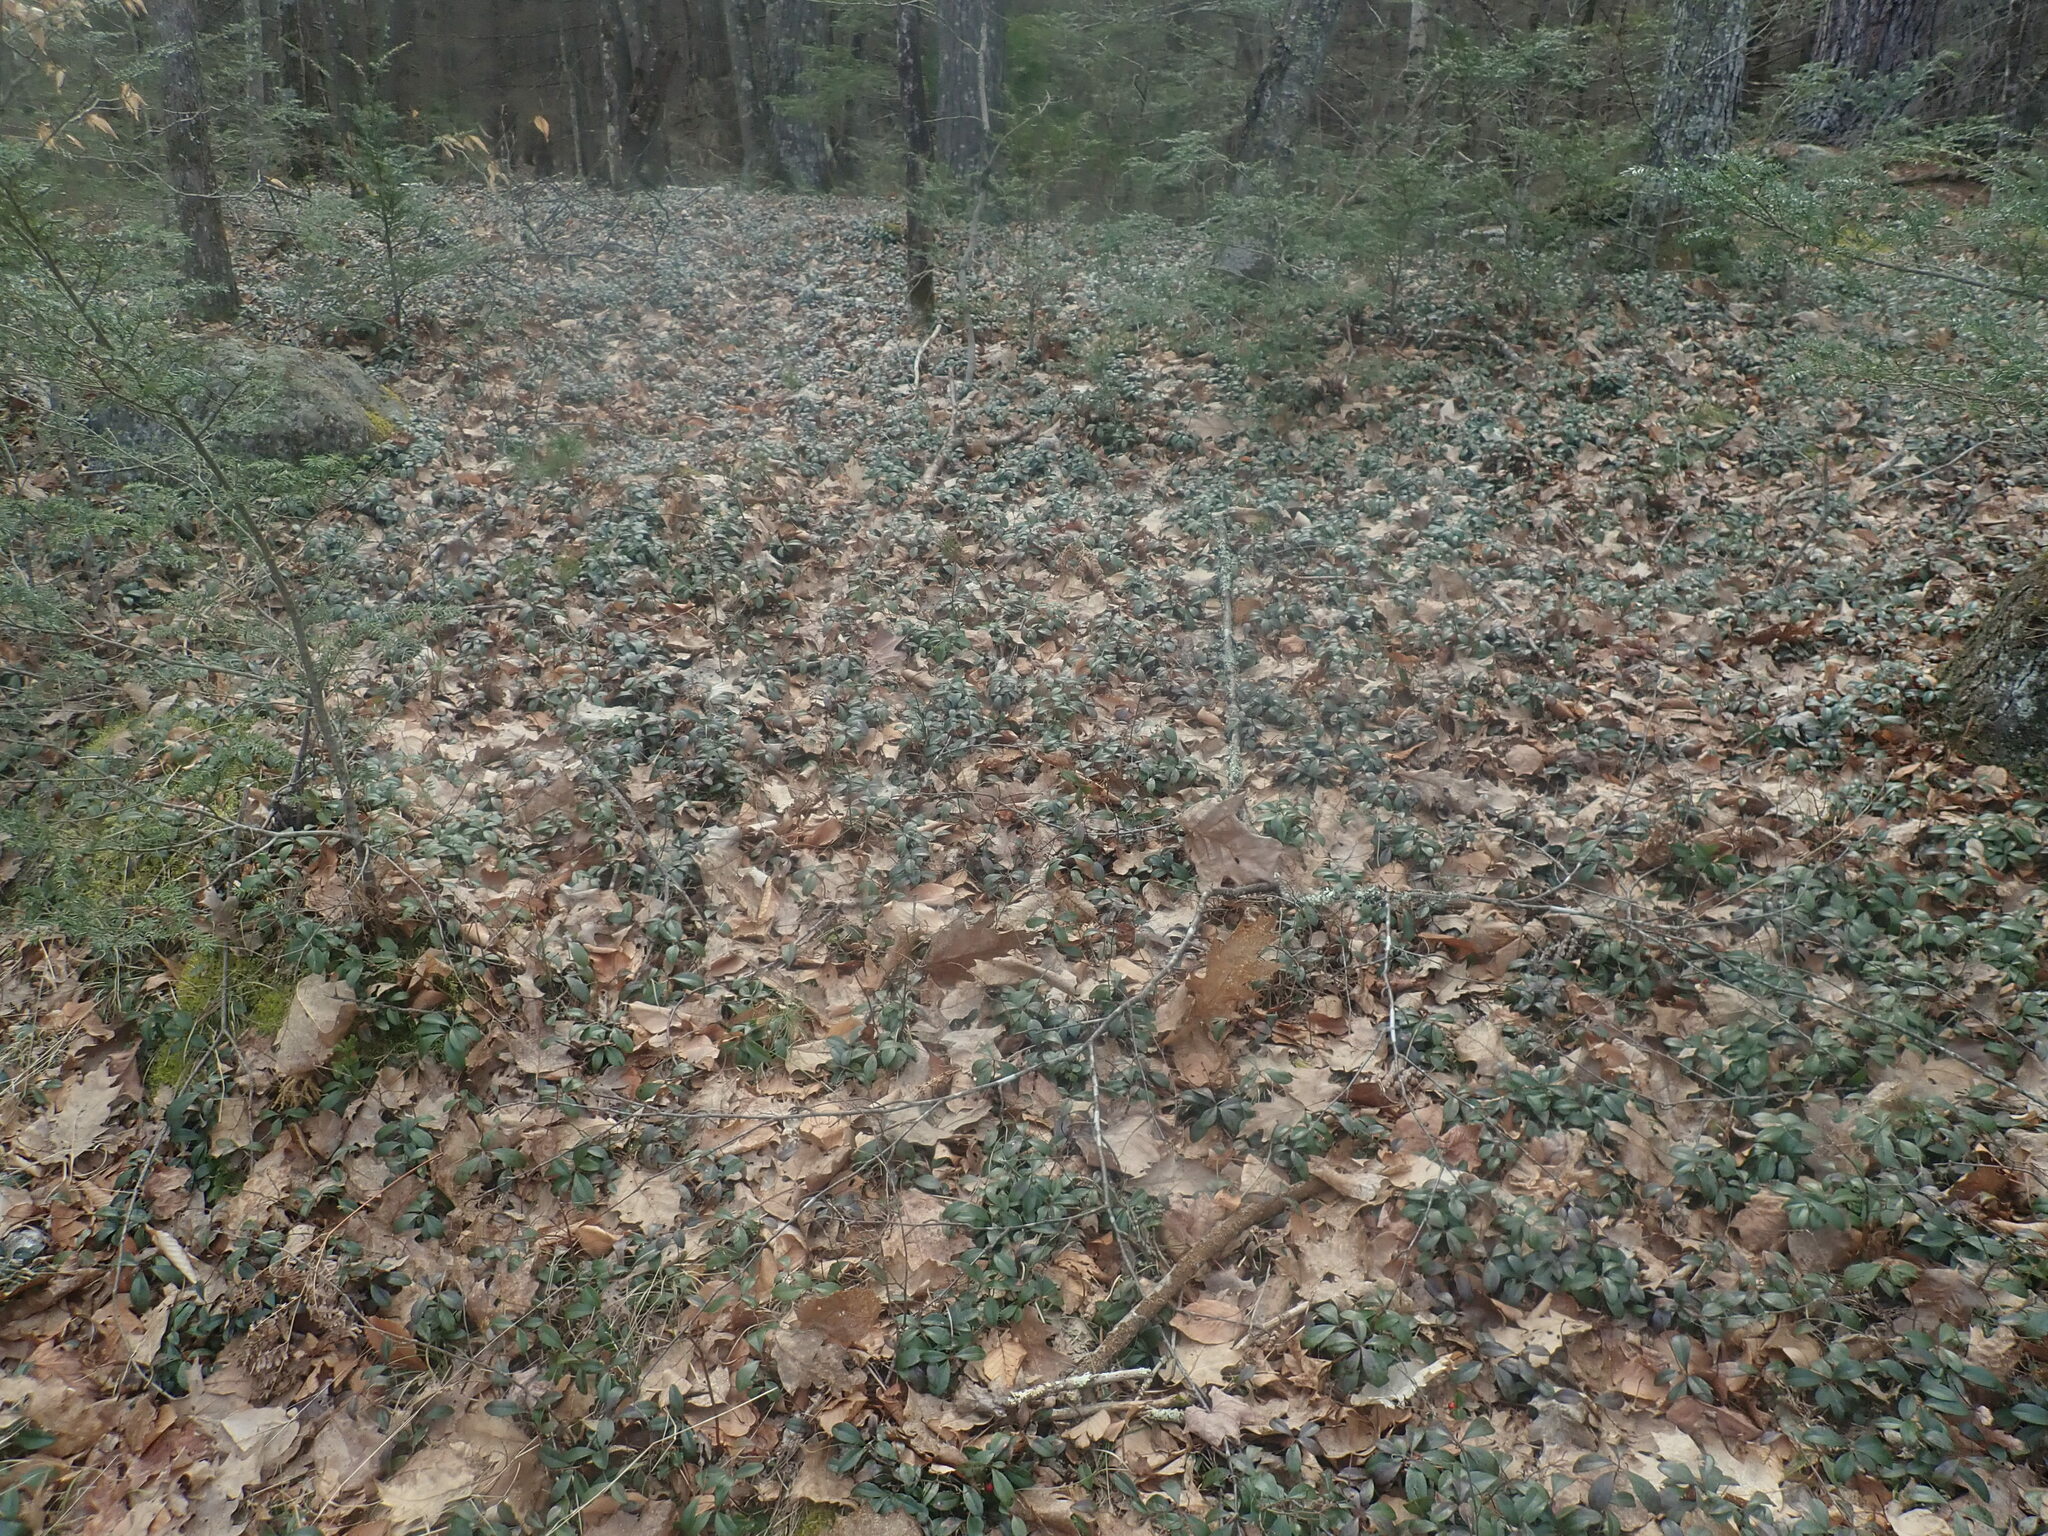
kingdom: Plantae
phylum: Tracheophyta
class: Magnoliopsida
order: Ericales
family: Ericaceae
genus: Gaultheria
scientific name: Gaultheria procumbens
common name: Checkerberry
